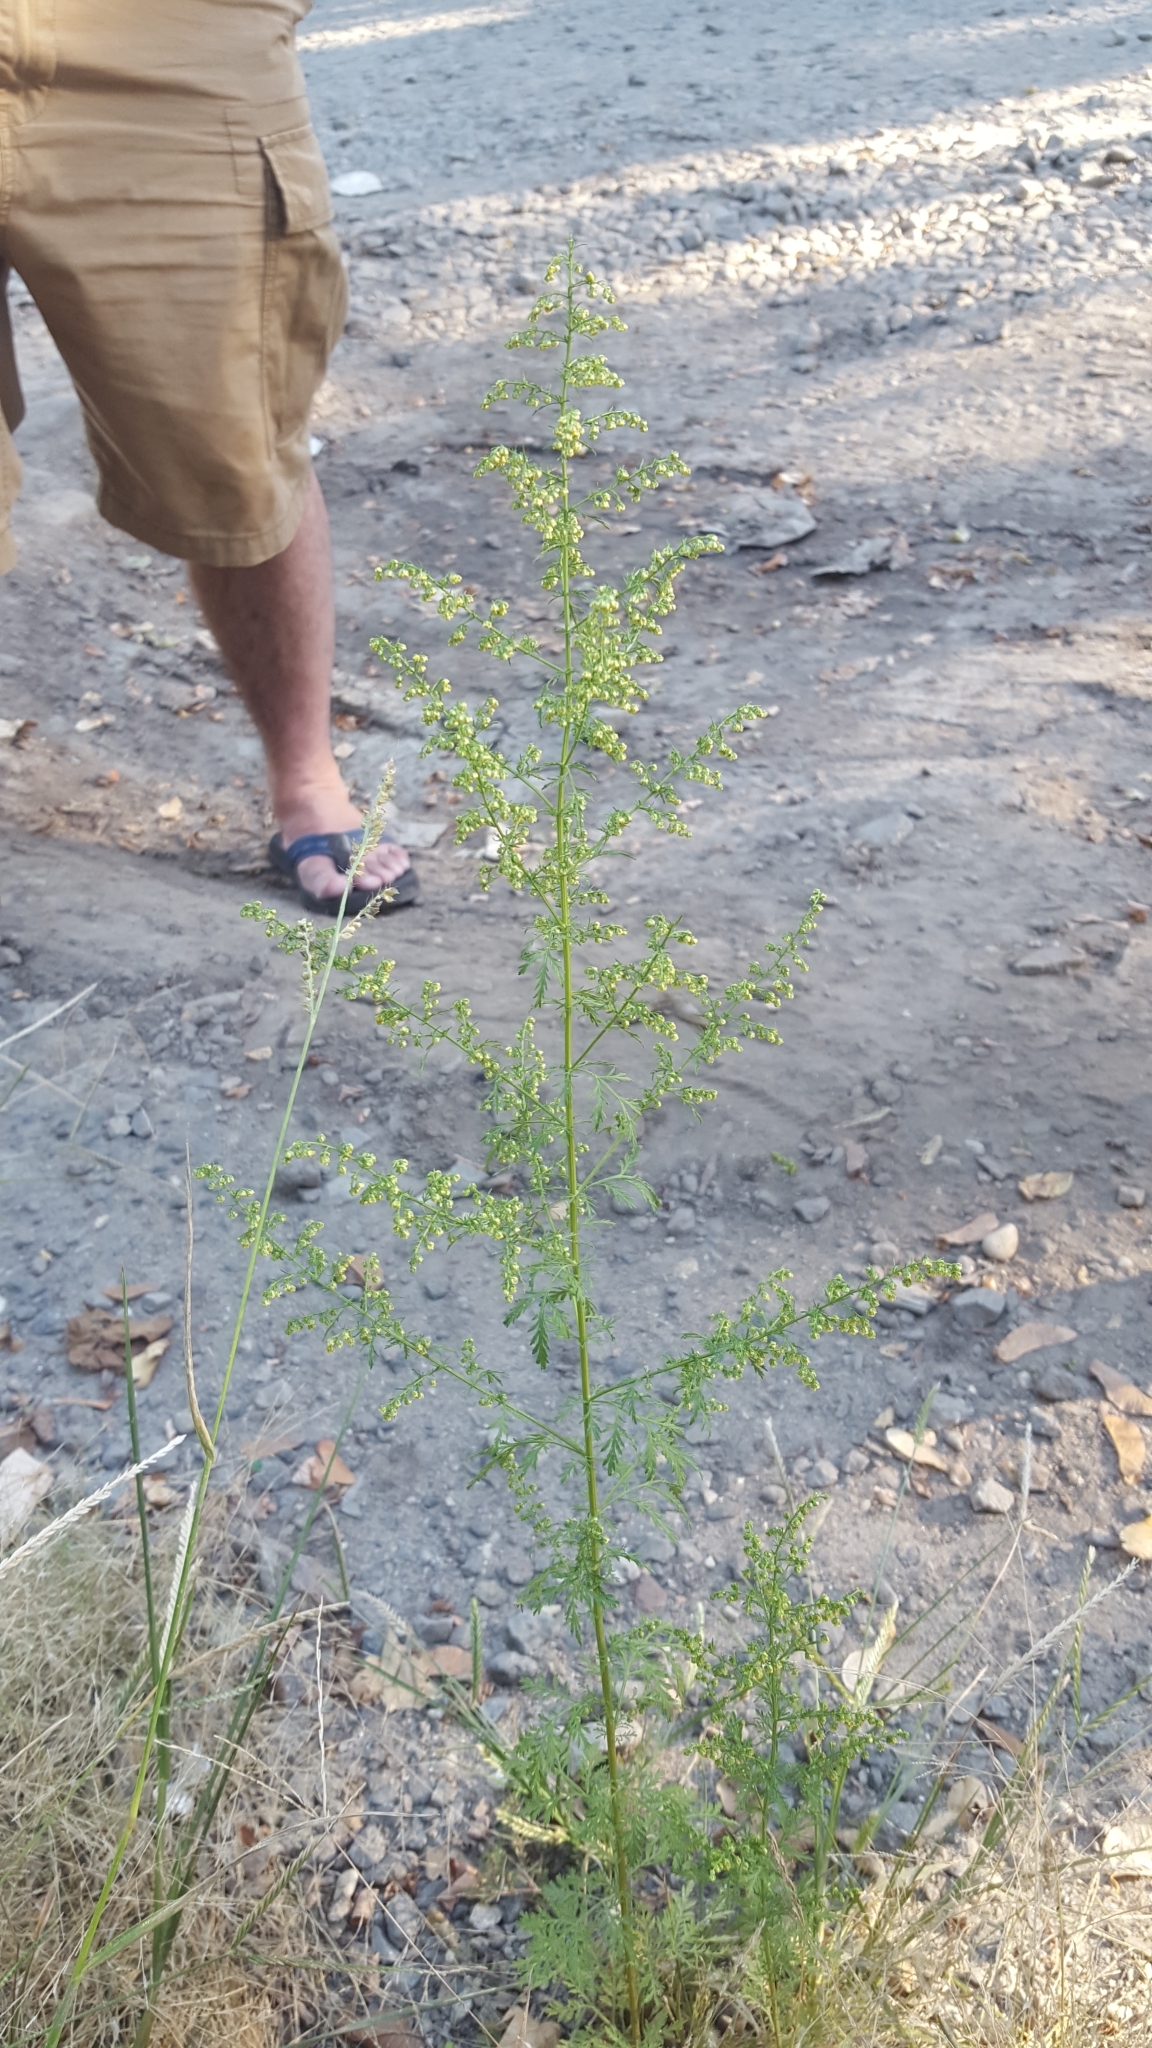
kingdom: Plantae
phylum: Tracheophyta
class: Magnoliopsida
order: Asterales
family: Asteraceae
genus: Artemisia
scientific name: Artemisia annua
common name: Sweet sagewort
